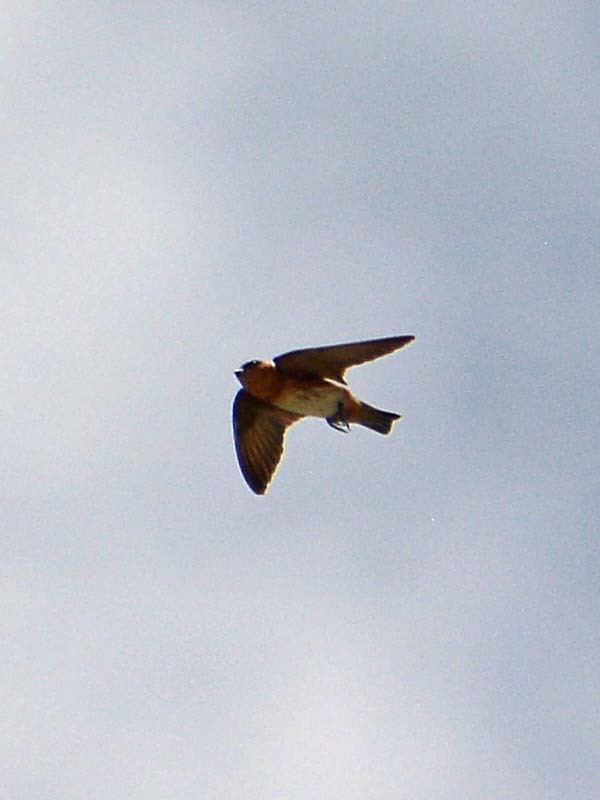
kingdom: Animalia
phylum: Chordata
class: Aves
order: Passeriformes
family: Hirundinidae
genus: Petrochelidon
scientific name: Petrochelidon fulva
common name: Cave swallow
